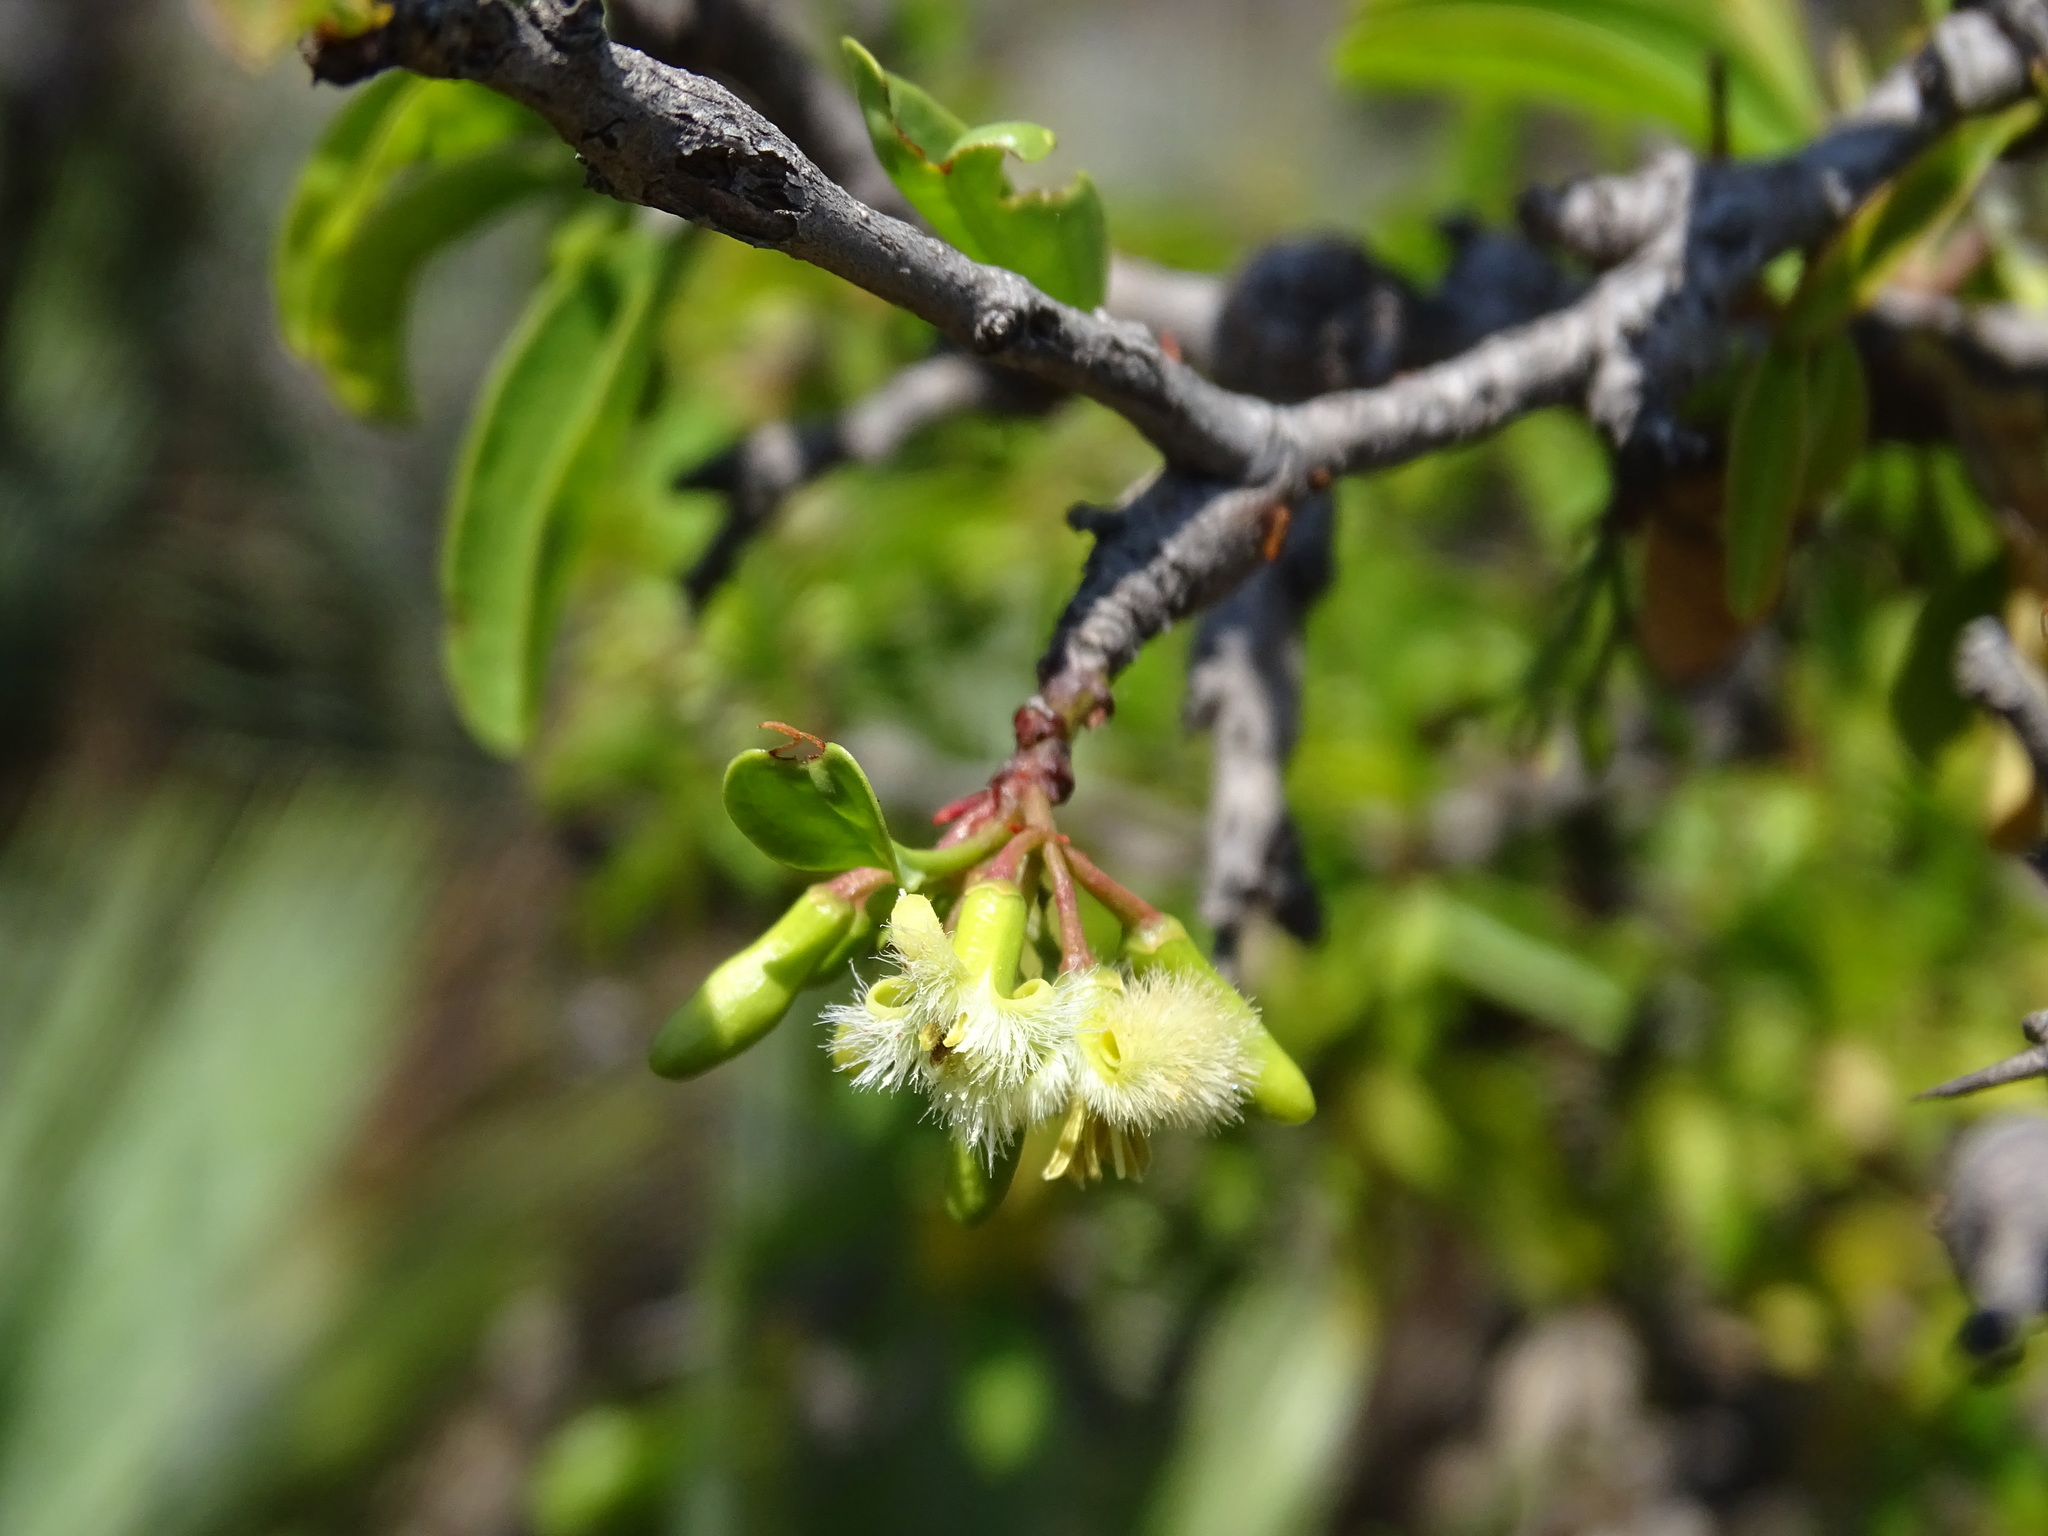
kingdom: Plantae
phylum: Tracheophyta
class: Magnoliopsida
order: Santalales
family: Ximeniaceae
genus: Ximenia
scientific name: Ximenia americana
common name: Tallowwood
